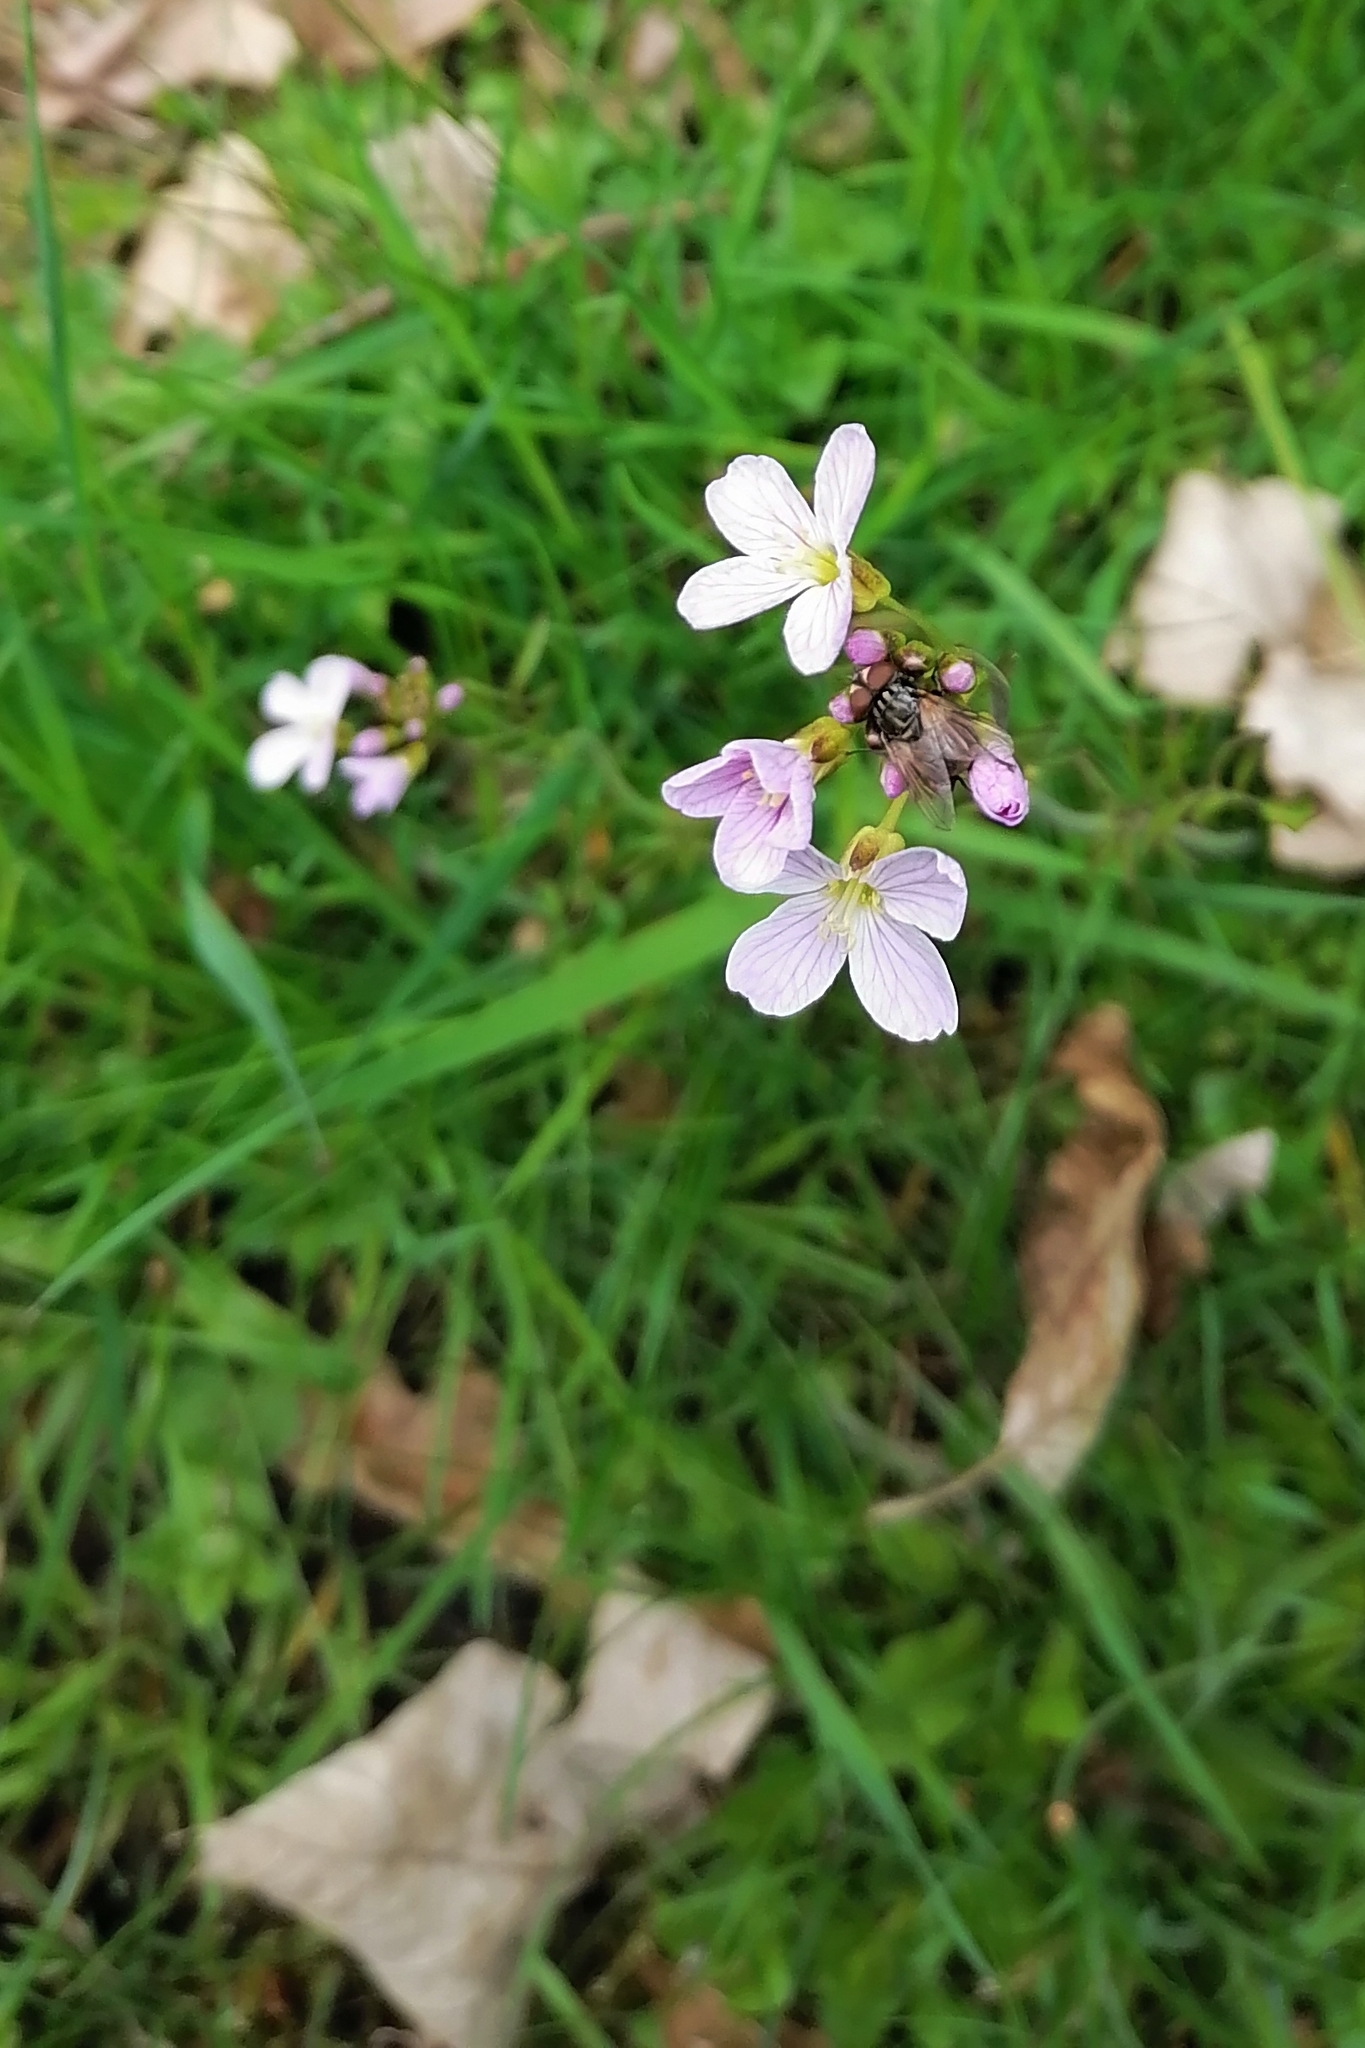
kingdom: Plantae
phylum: Tracheophyta
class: Magnoliopsida
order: Brassicales
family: Brassicaceae
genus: Cardamine
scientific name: Cardamine pratensis
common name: Cuckoo flower
